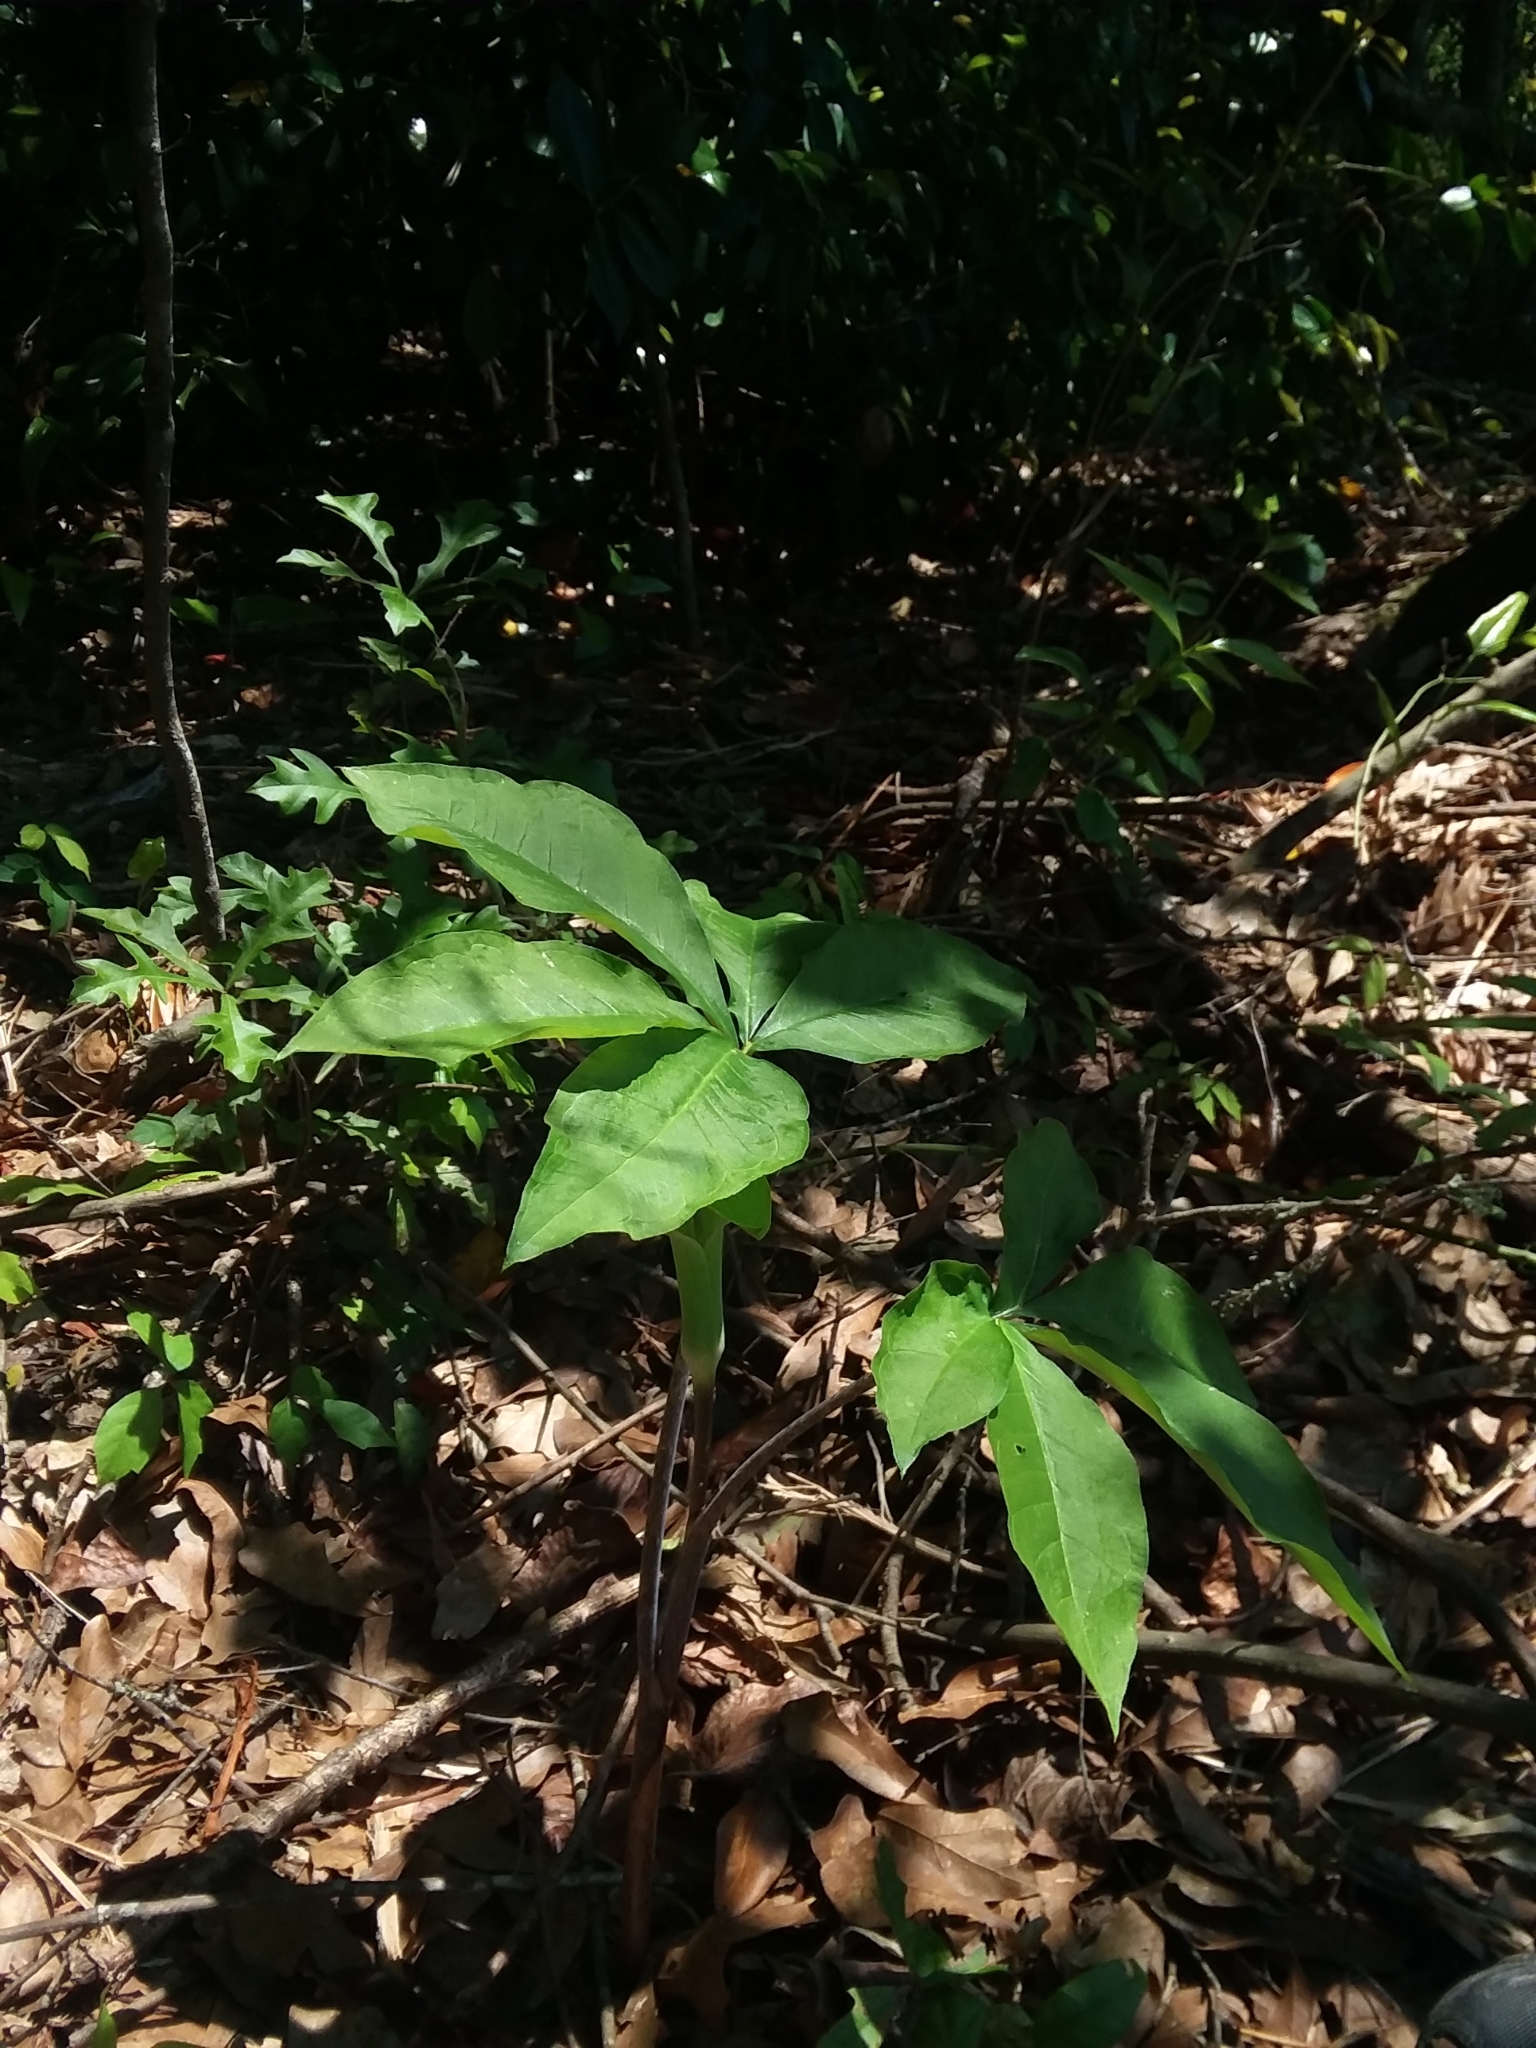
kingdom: Plantae
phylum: Tracheophyta
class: Liliopsida
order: Alismatales
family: Araceae
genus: Arisaema
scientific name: Arisaema quinatum
